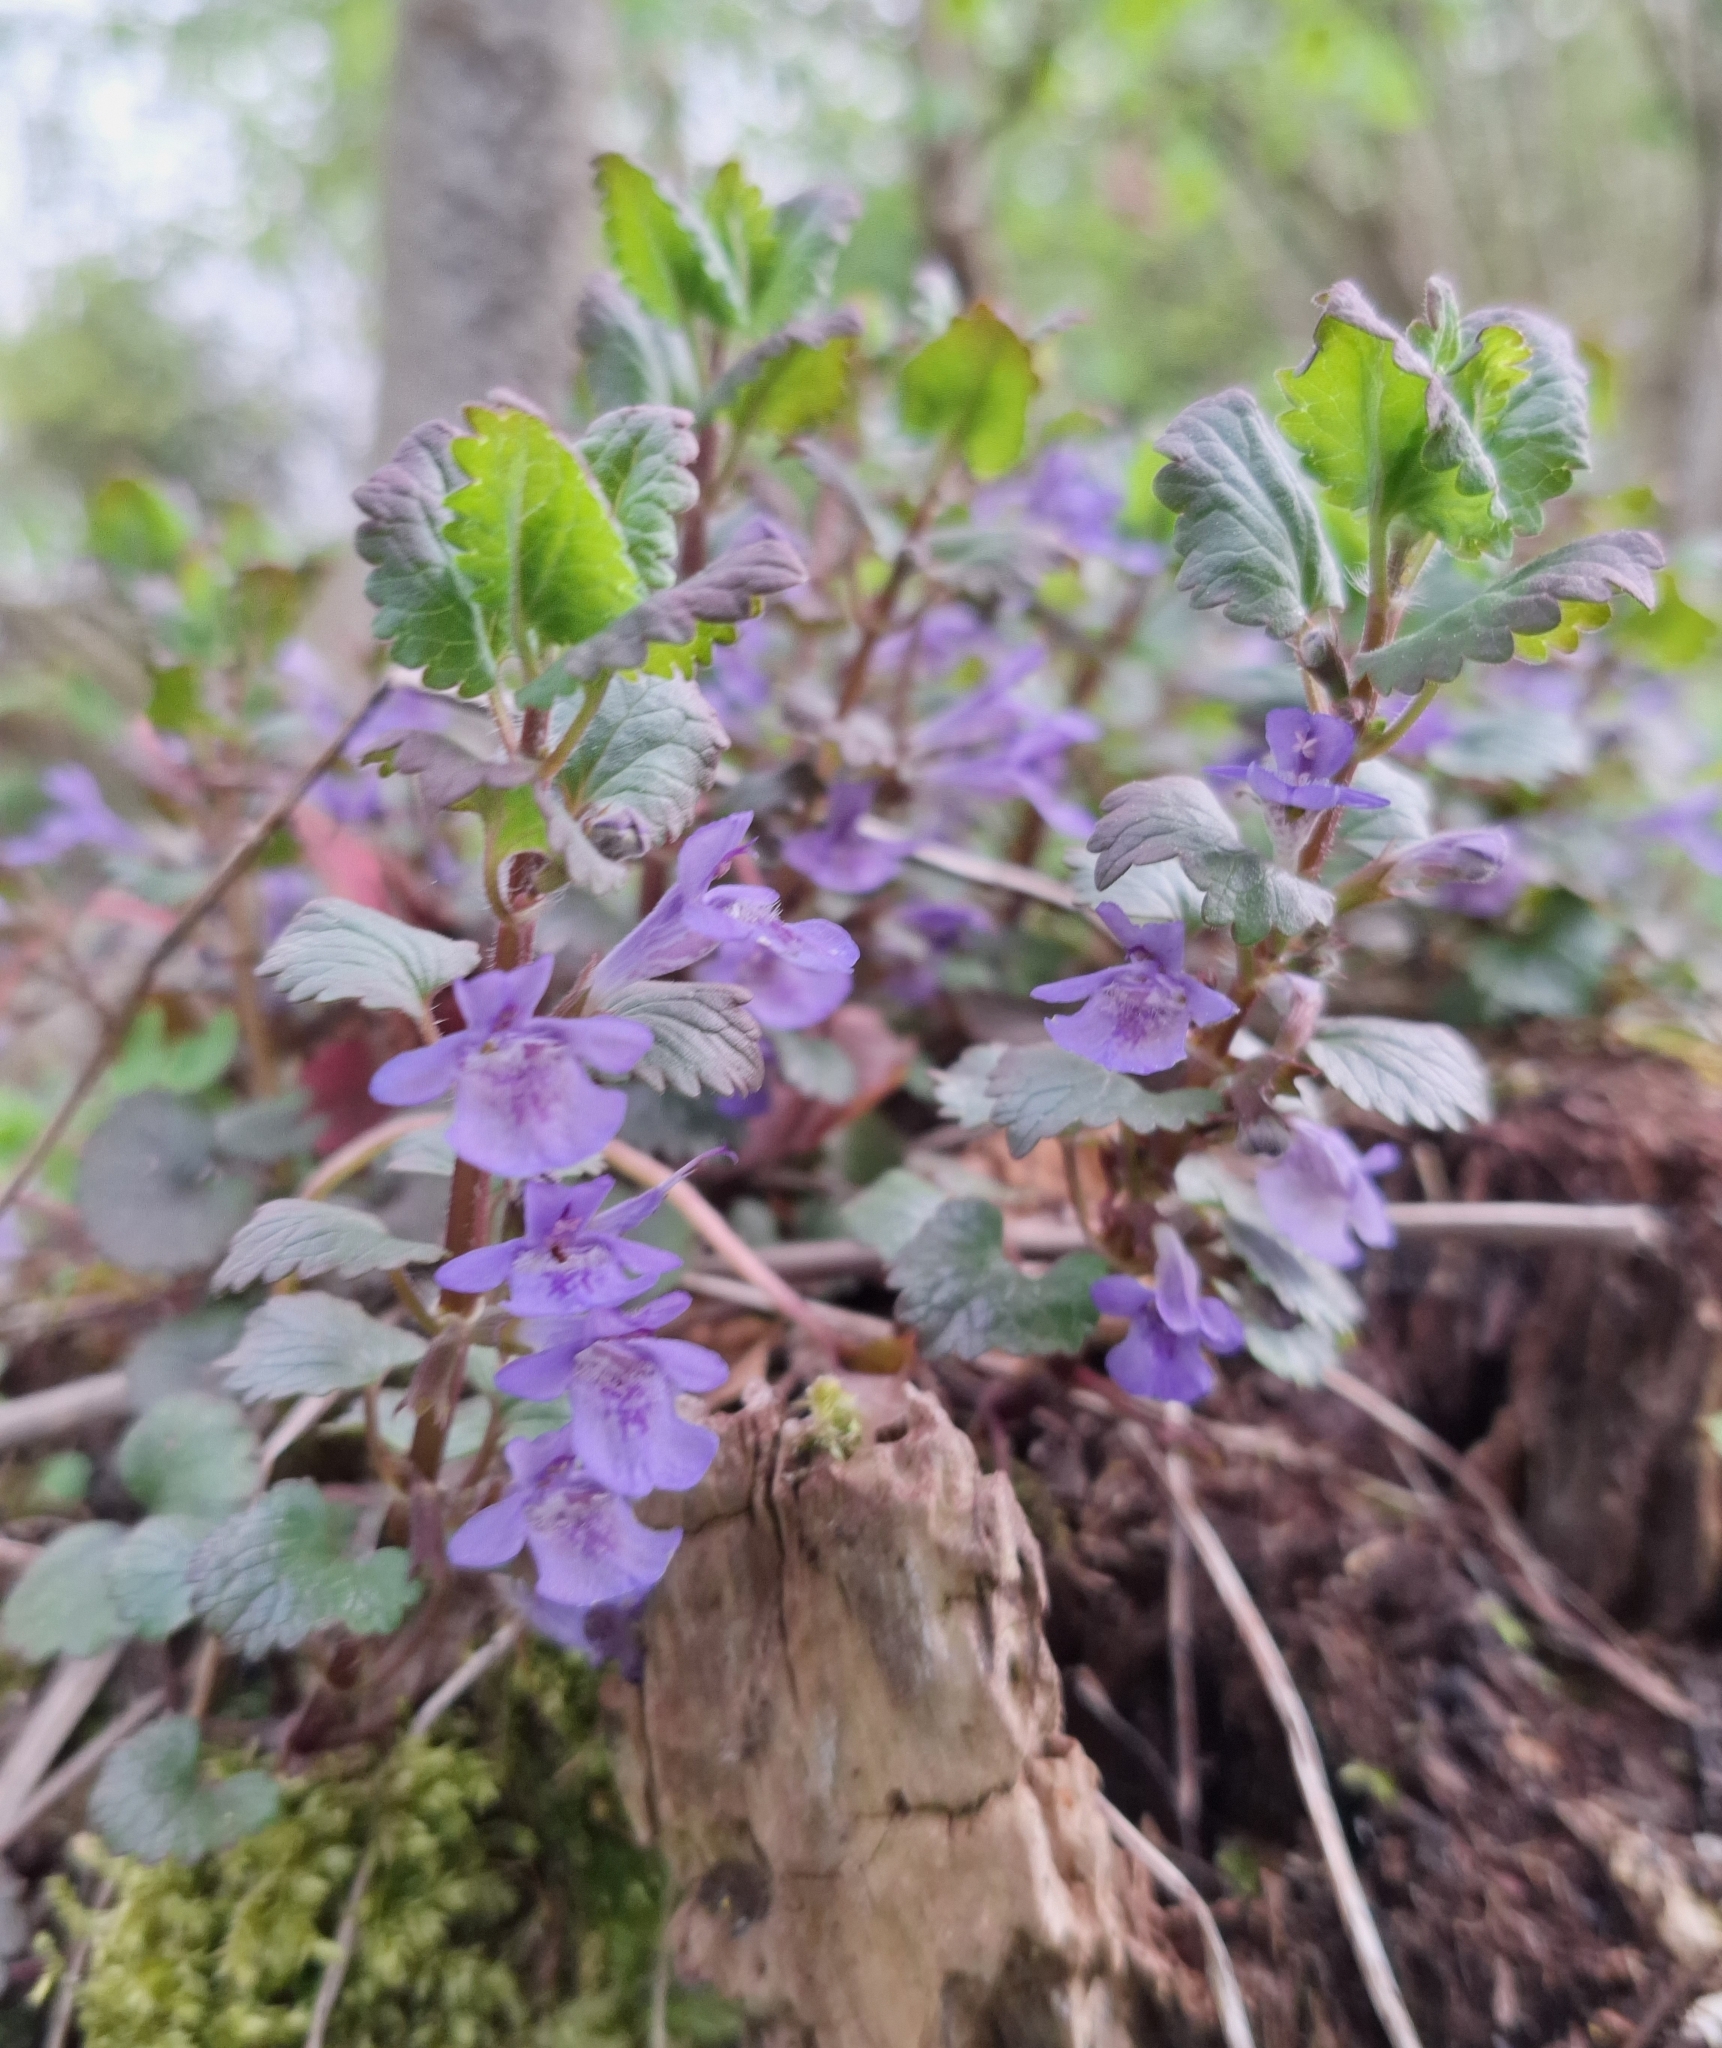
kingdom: Plantae
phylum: Tracheophyta
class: Magnoliopsida
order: Lamiales
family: Lamiaceae
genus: Glechoma
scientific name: Glechoma hederacea
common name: Ground ivy
